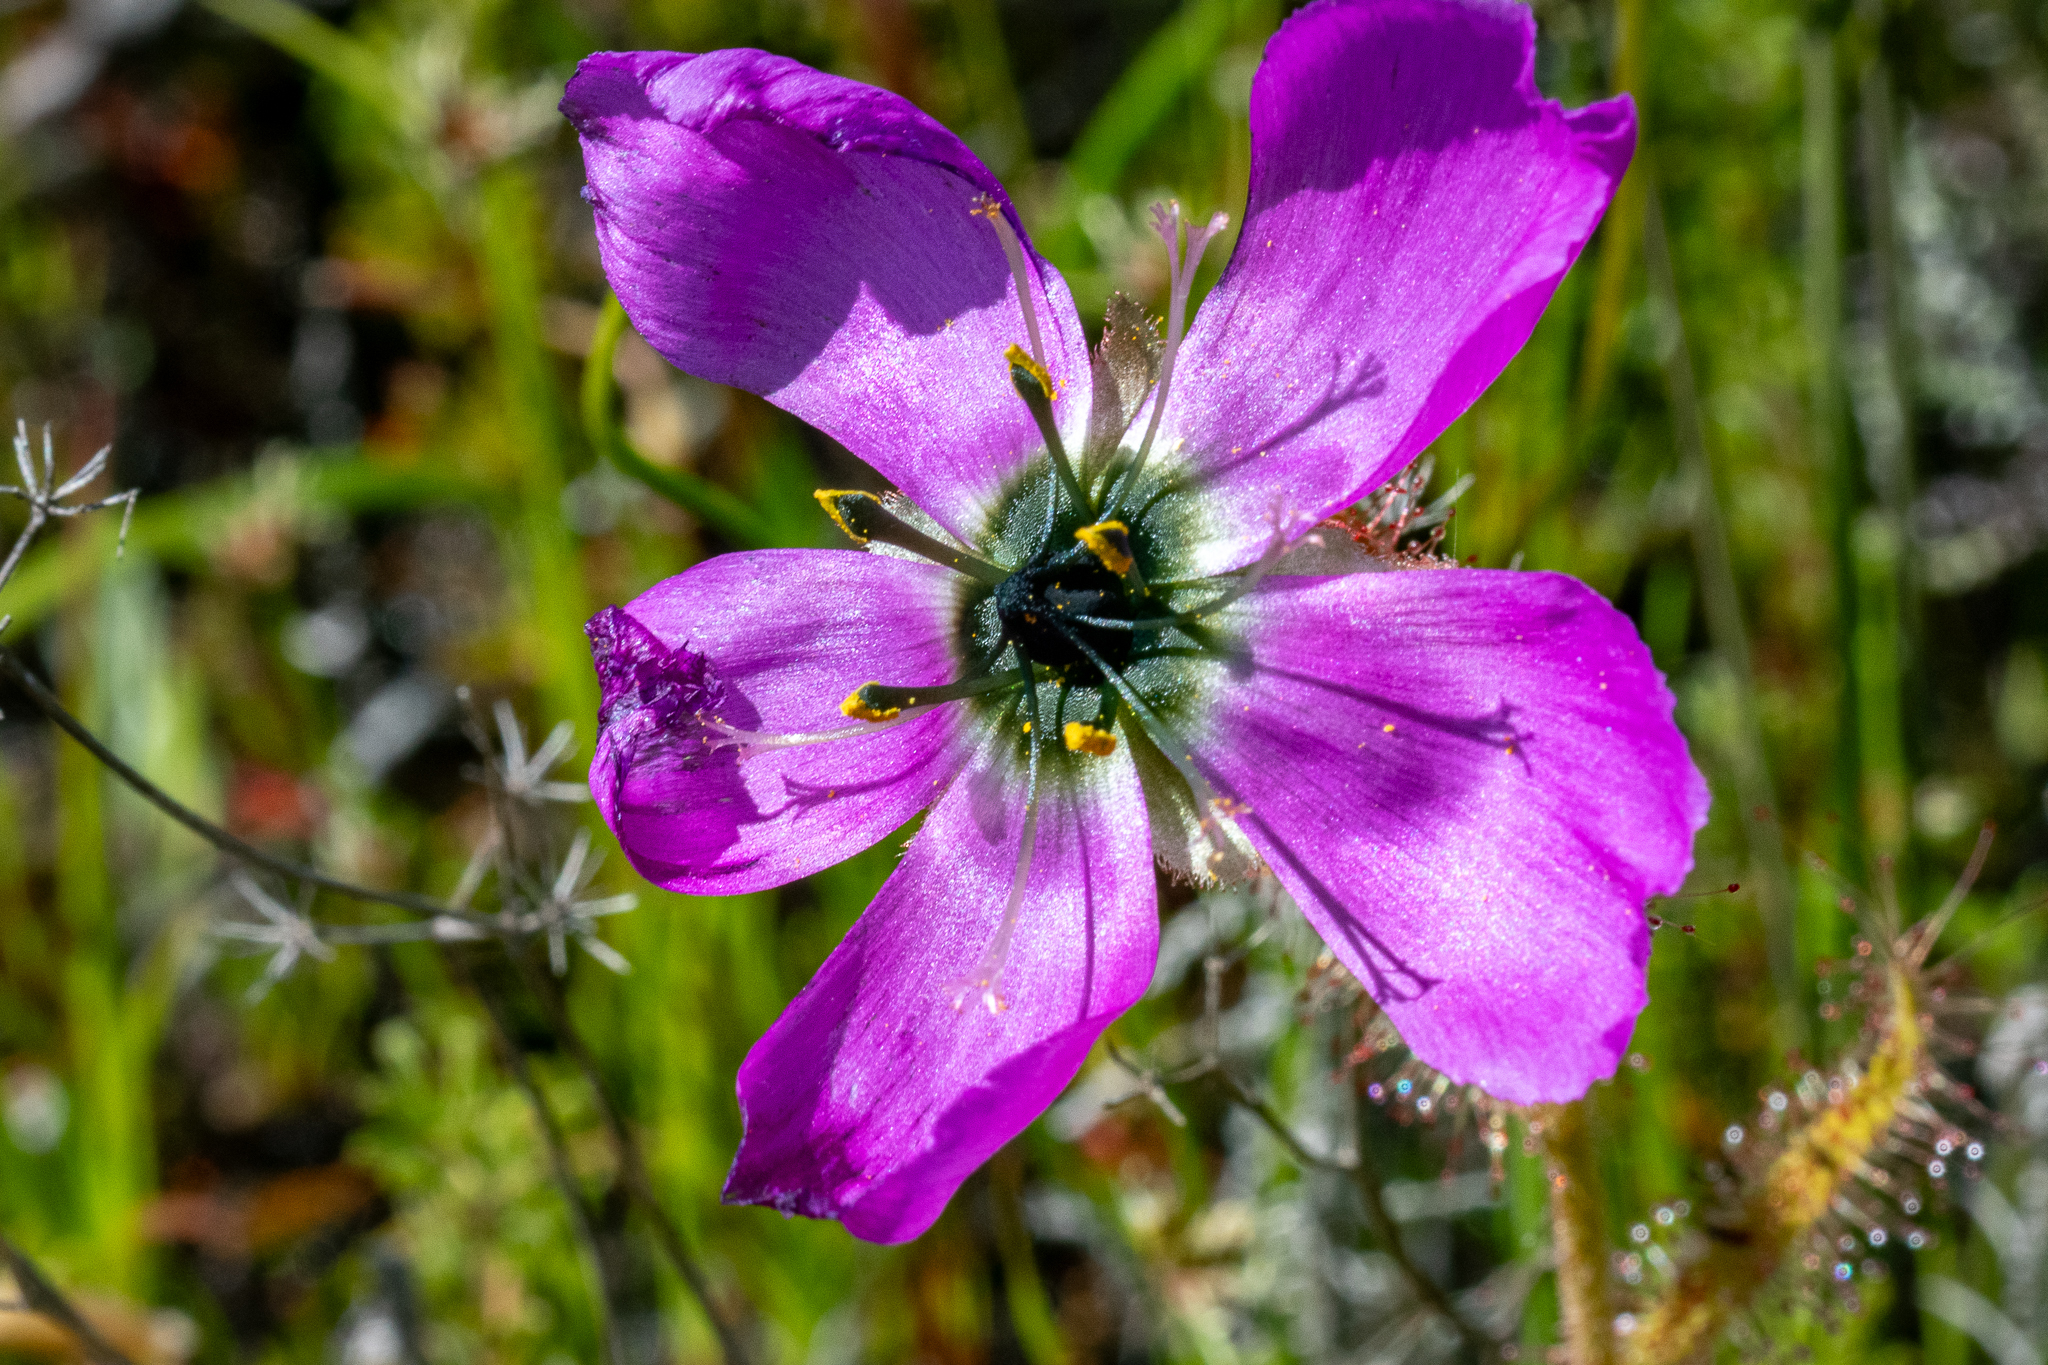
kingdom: Plantae
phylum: Tracheophyta
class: Magnoliopsida
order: Caryophyllales
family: Droseraceae
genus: Drosera
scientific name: Drosera cistiflora
